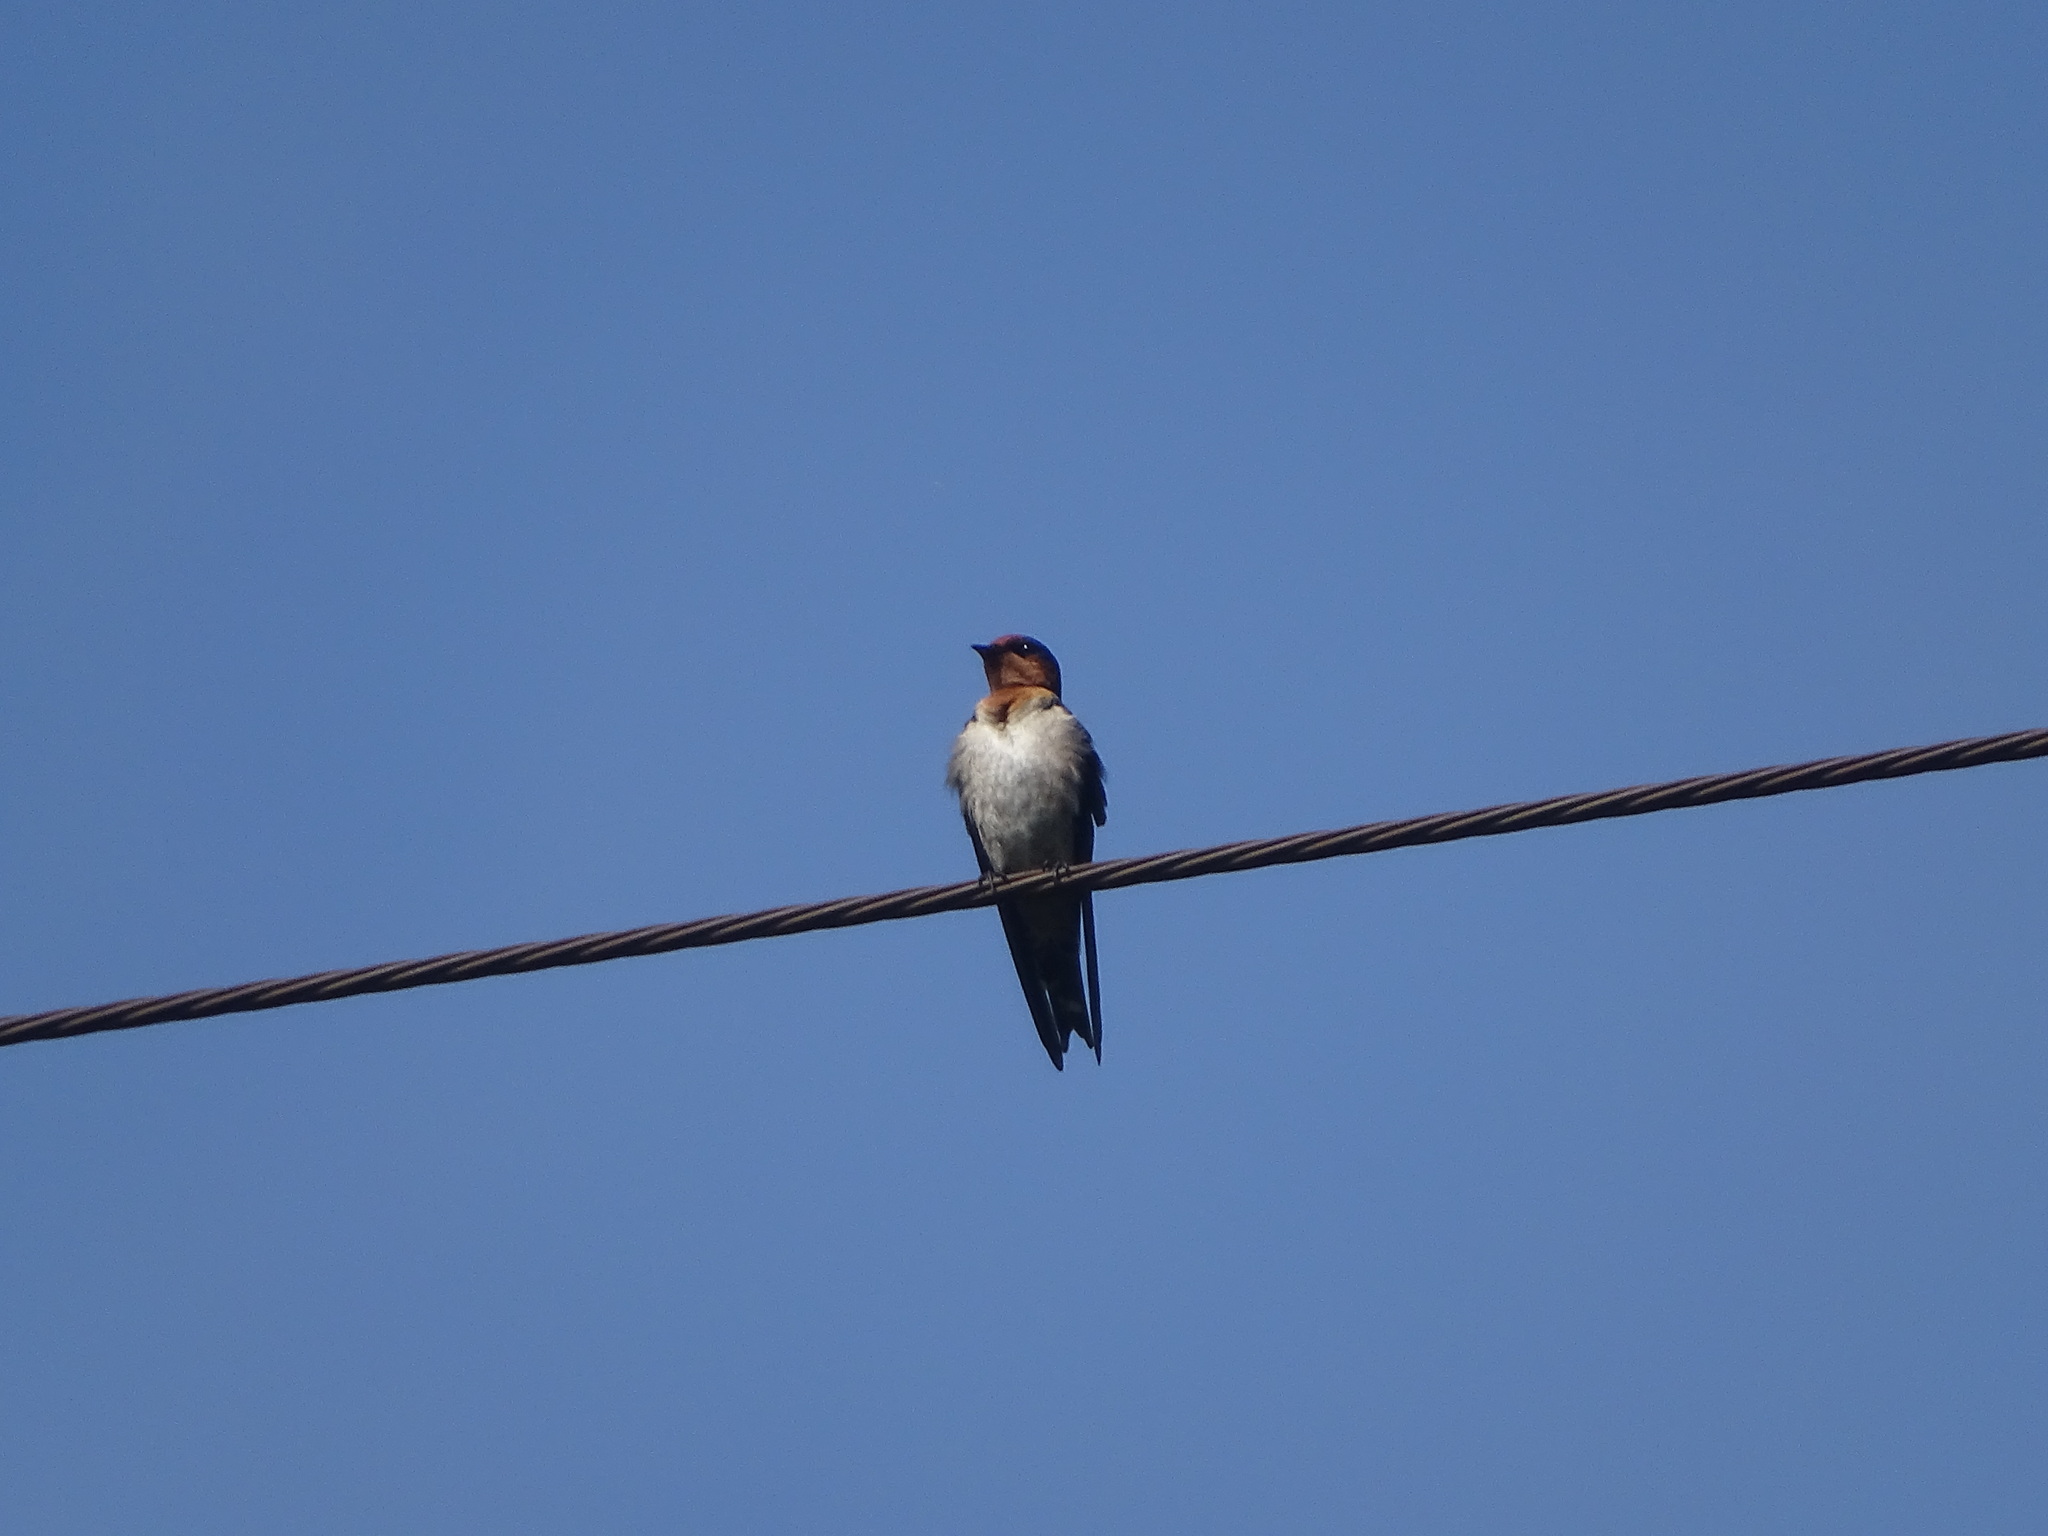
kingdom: Animalia
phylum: Chordata
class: Aves
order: Passeriformes
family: Hirundinidae
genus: Hirundo
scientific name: Hirundo tahitica
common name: Pacific swallow
